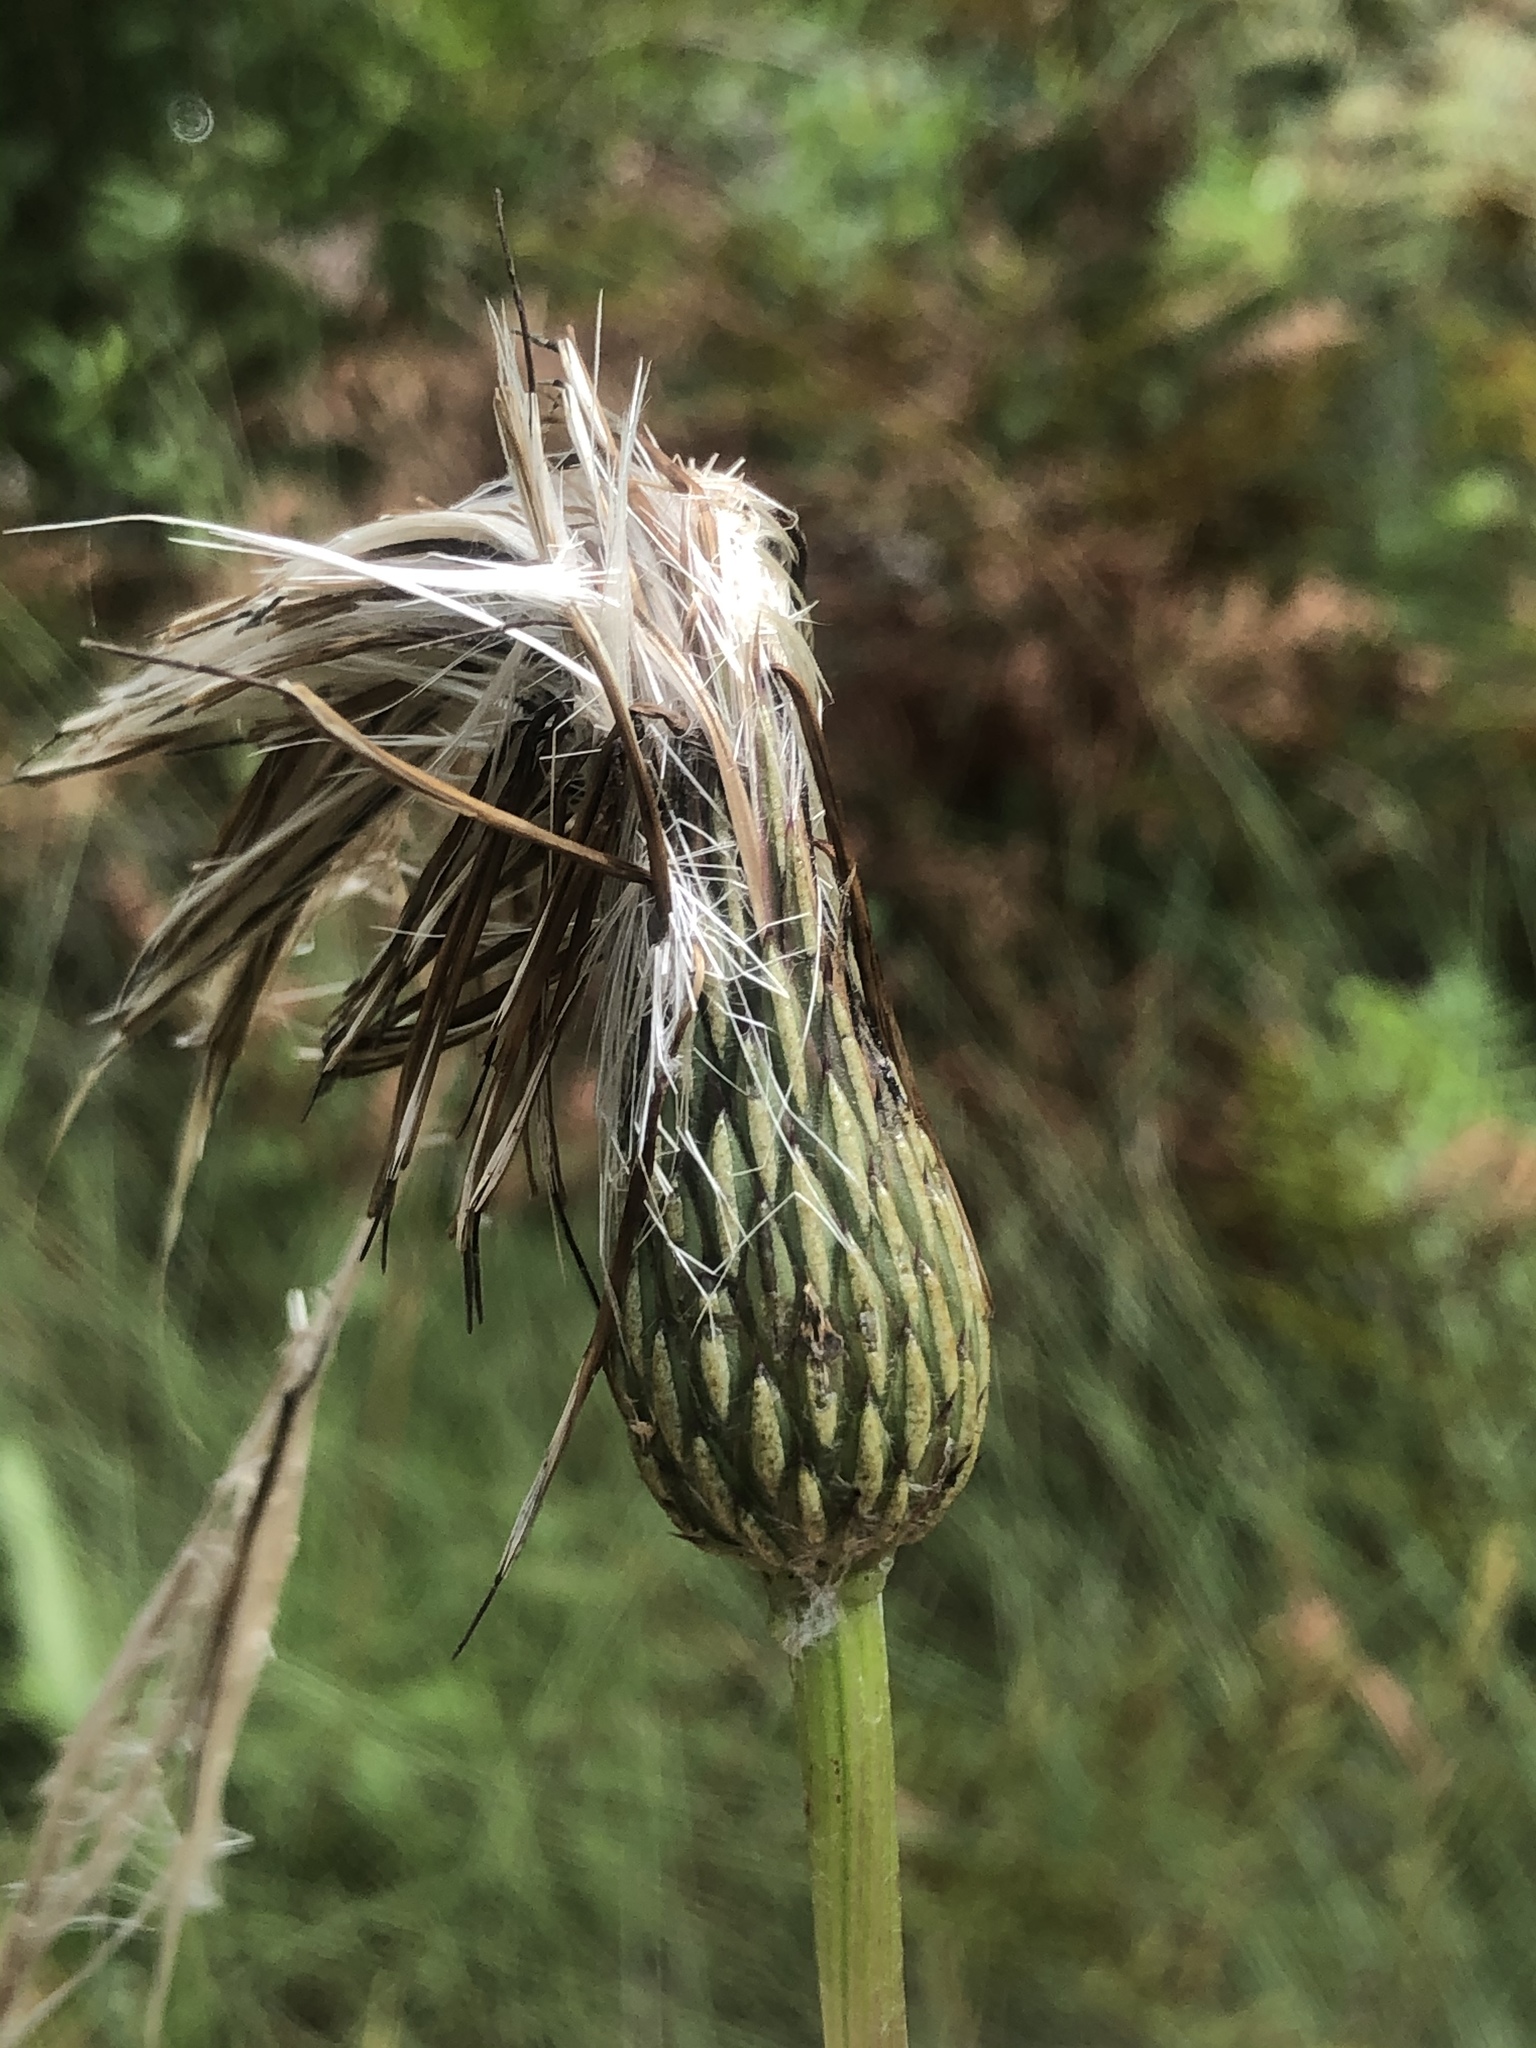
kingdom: Plantae
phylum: Tracheophyta
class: Magnoliopsida
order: Asterales
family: Asteraceae
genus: Cirsium
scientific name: Cirsium lecontei
